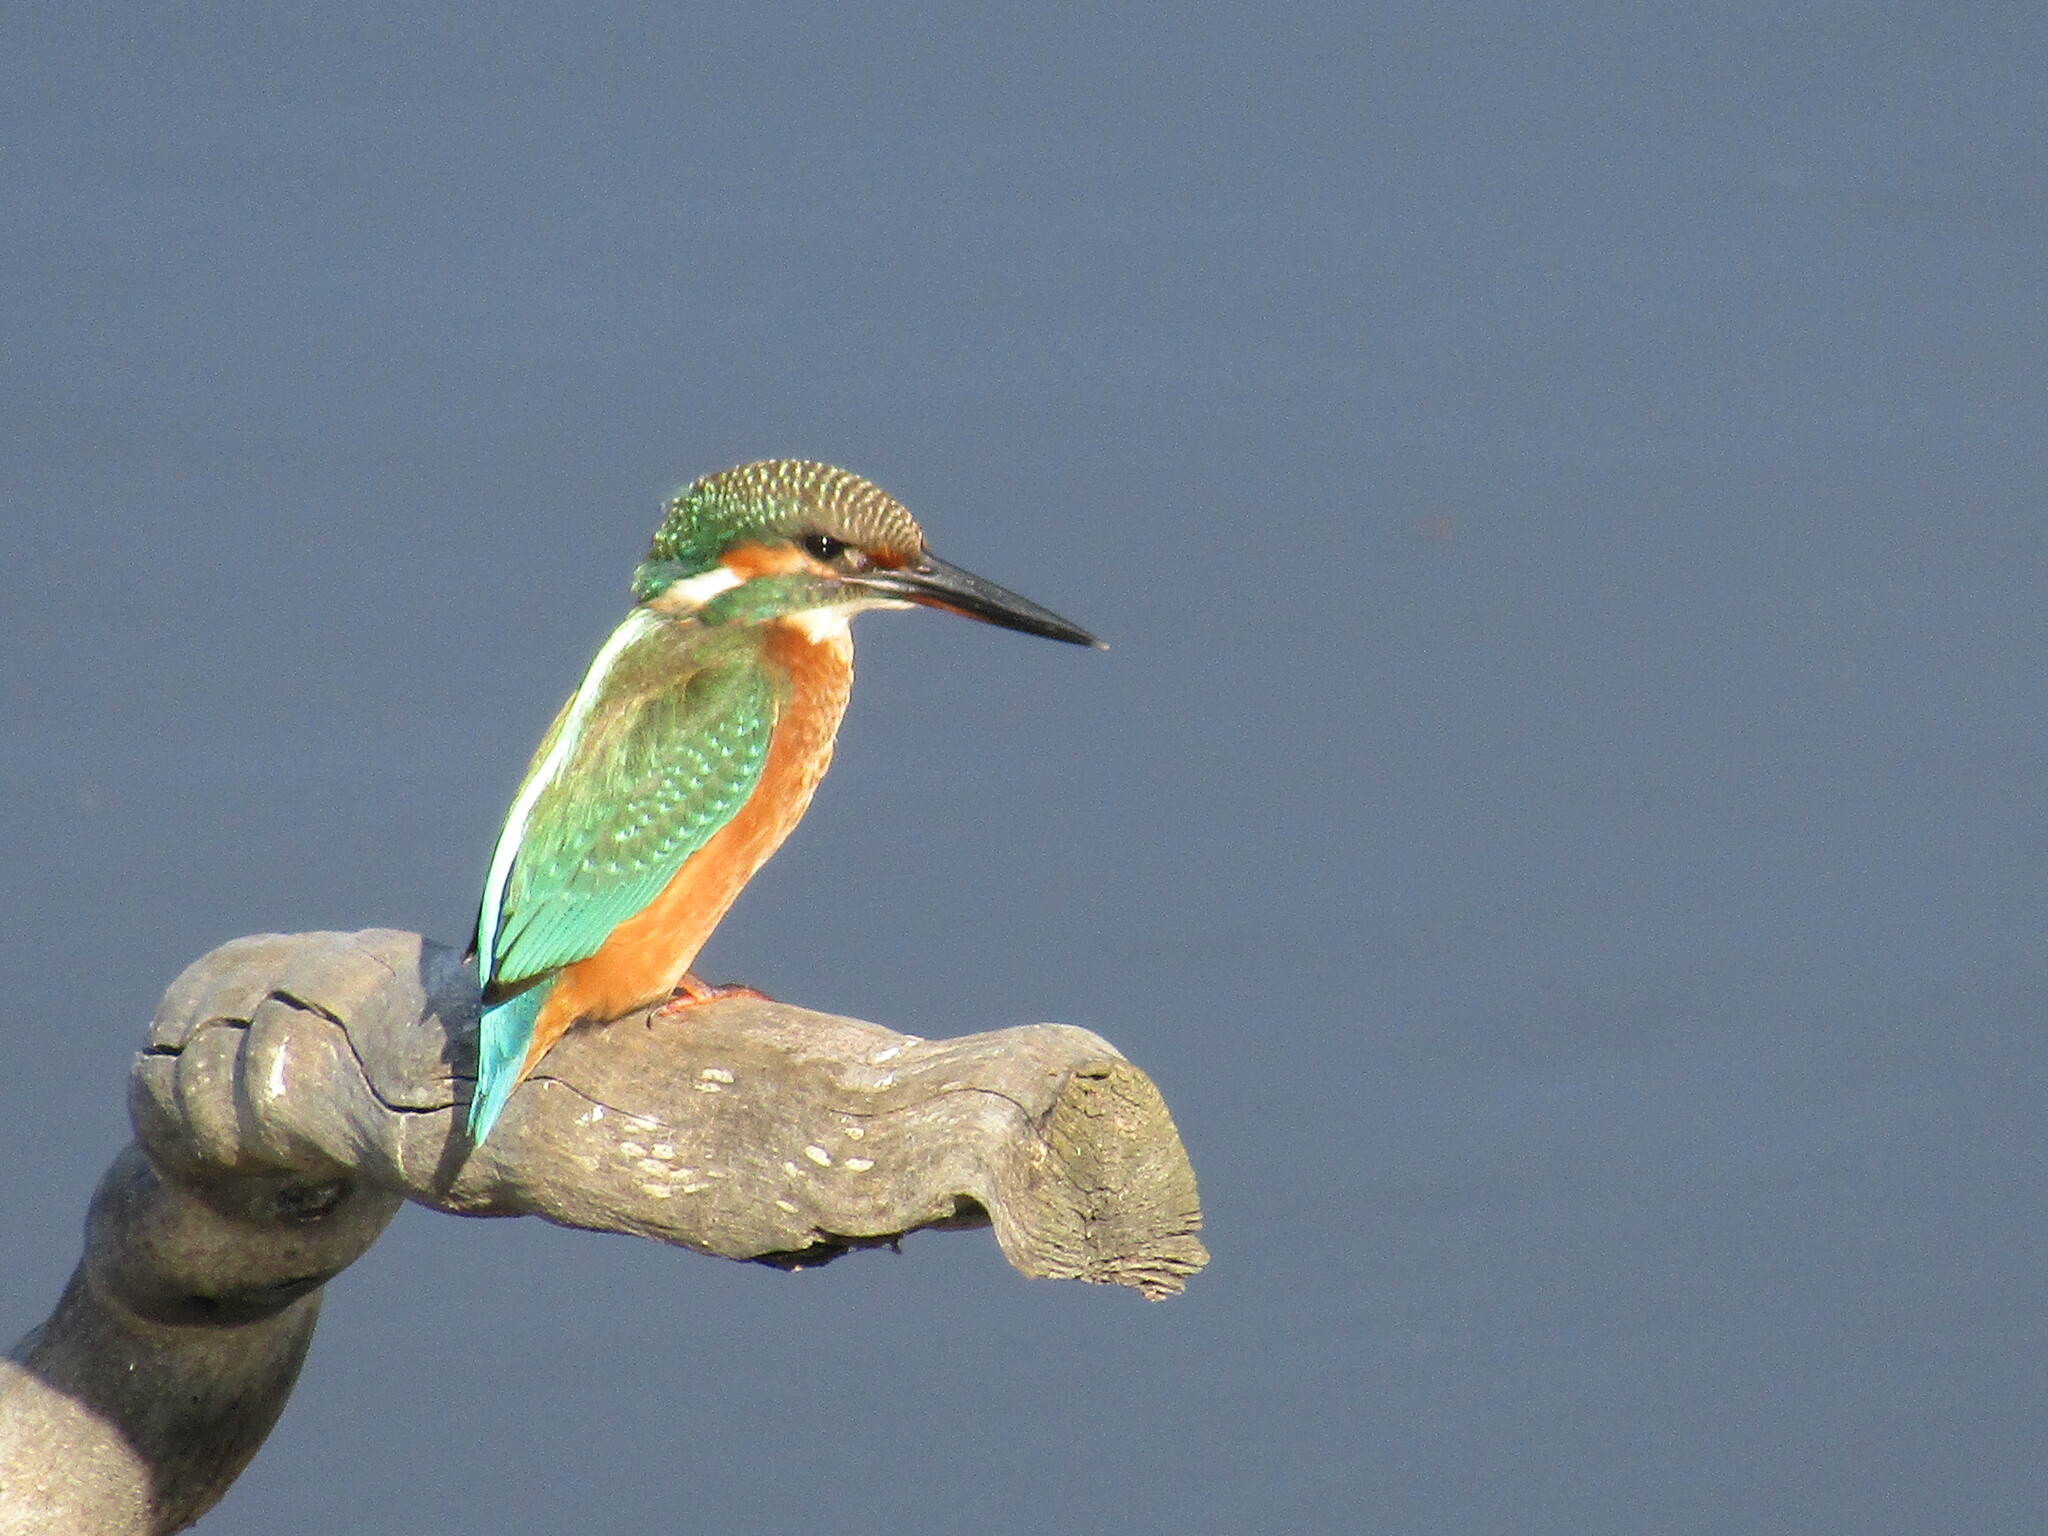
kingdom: Animalia
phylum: Chordata
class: Aves
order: Coraciiformes
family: Alcedinidae
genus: Alcedo
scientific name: Alcedo atthis
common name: Common kingfisher
